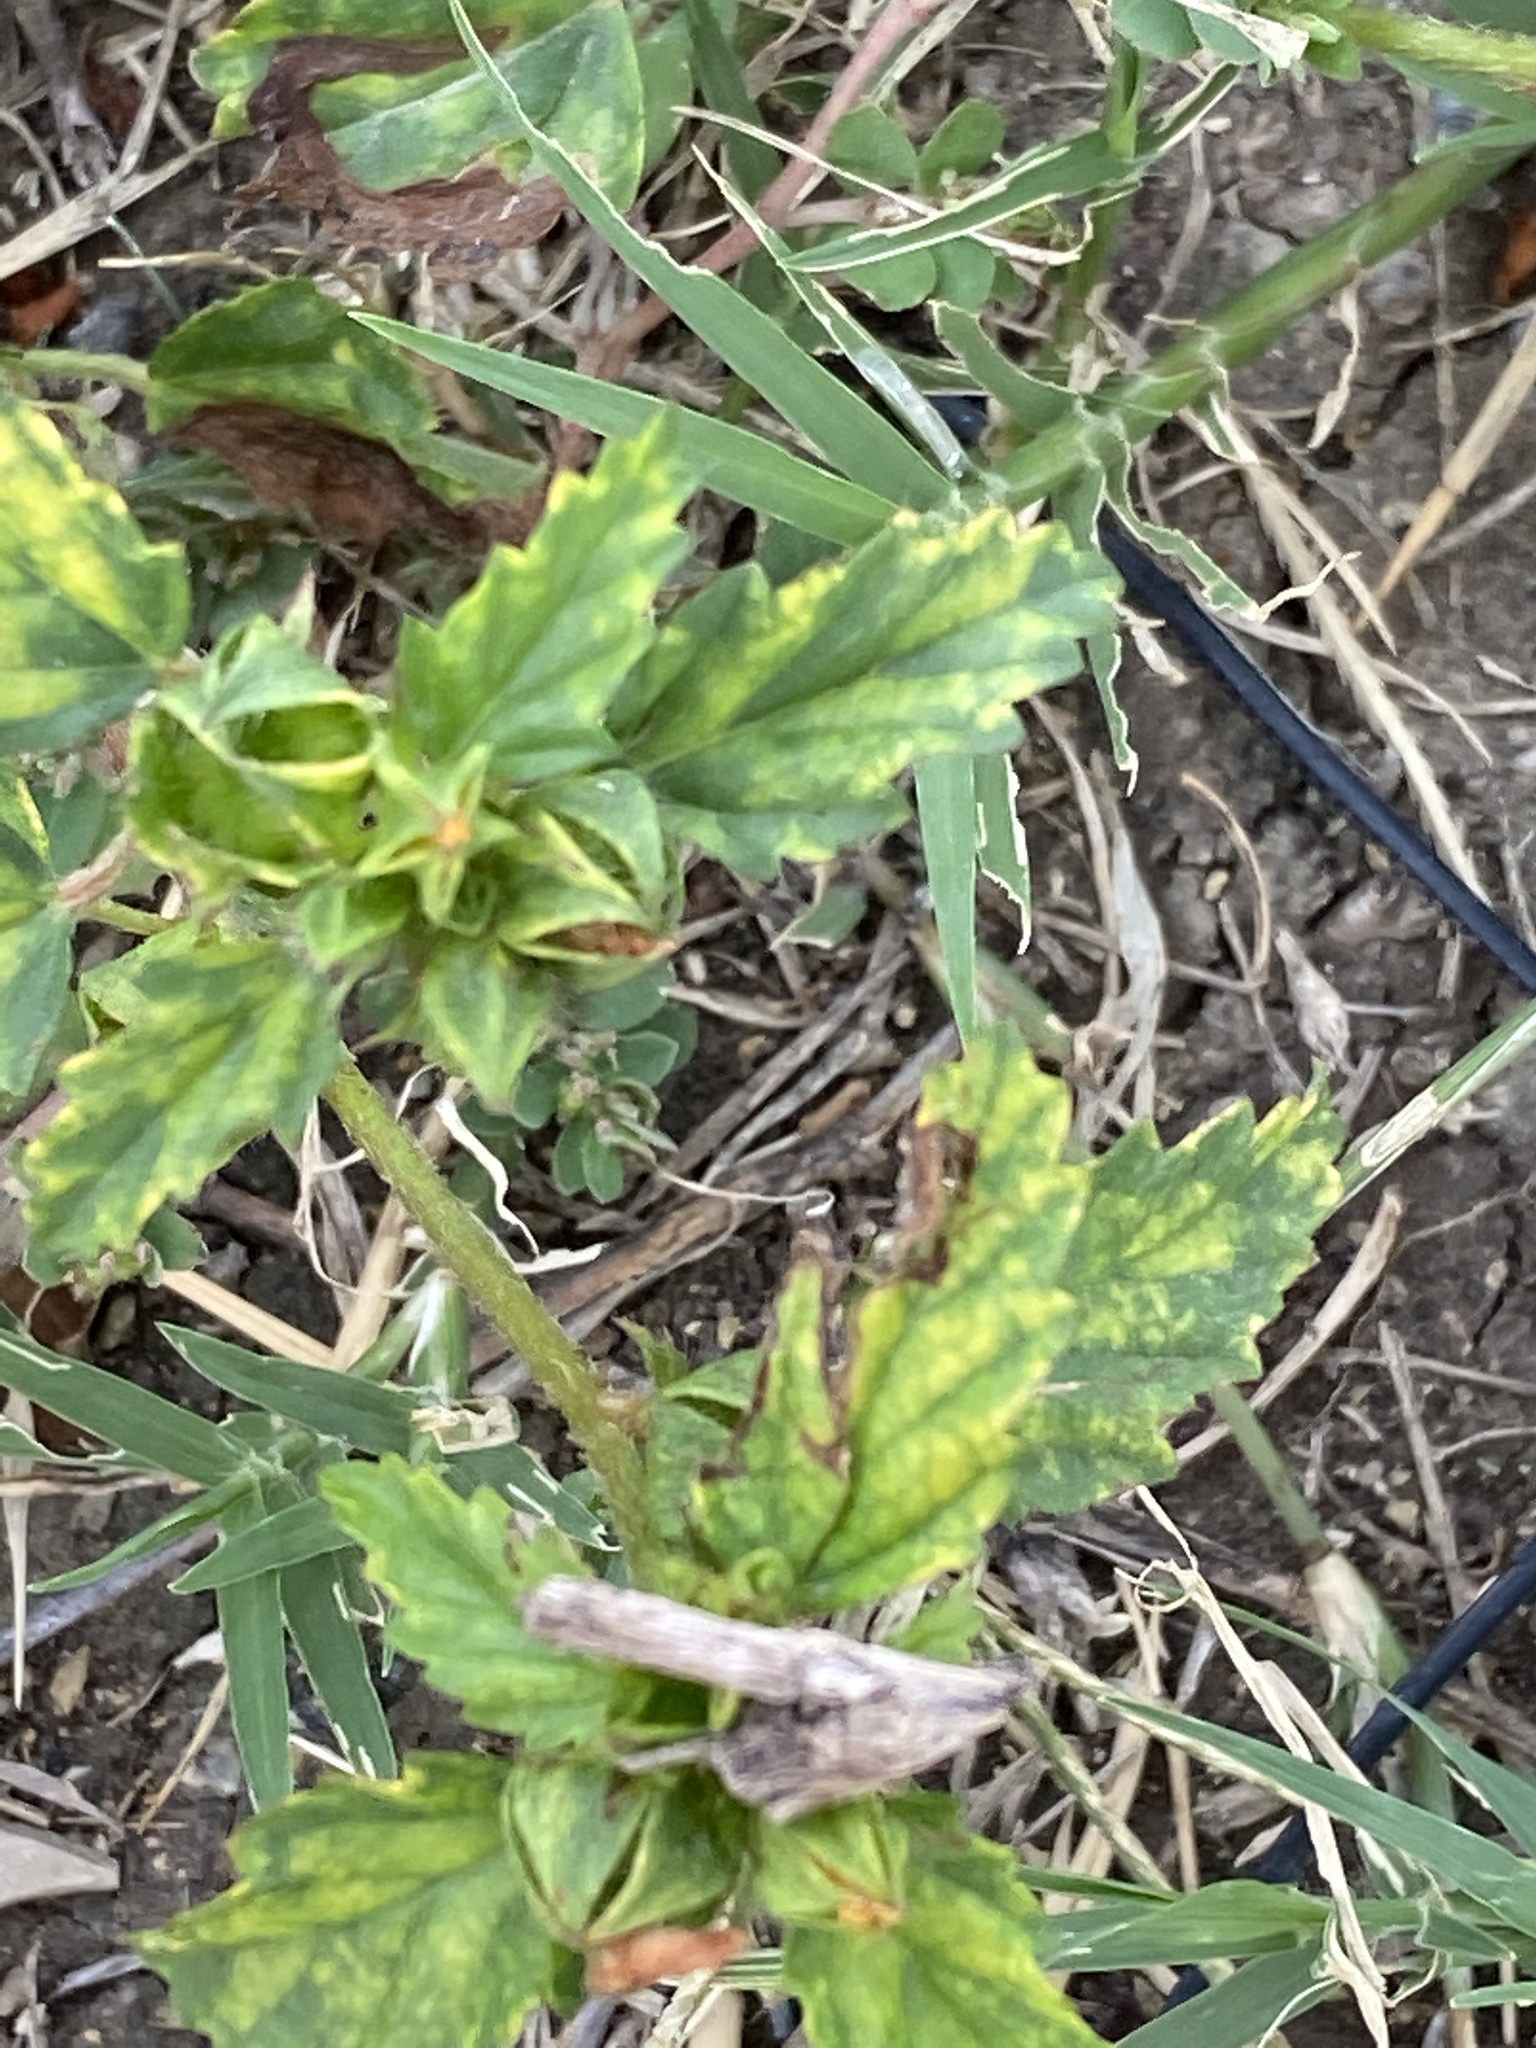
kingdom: Plantae
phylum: Tracheophyta
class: Magnoliopsida
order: Malvales
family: Malvaceae
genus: Malvastrum
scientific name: Malvastrum coromandelianum
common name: Threelobe false mallow
